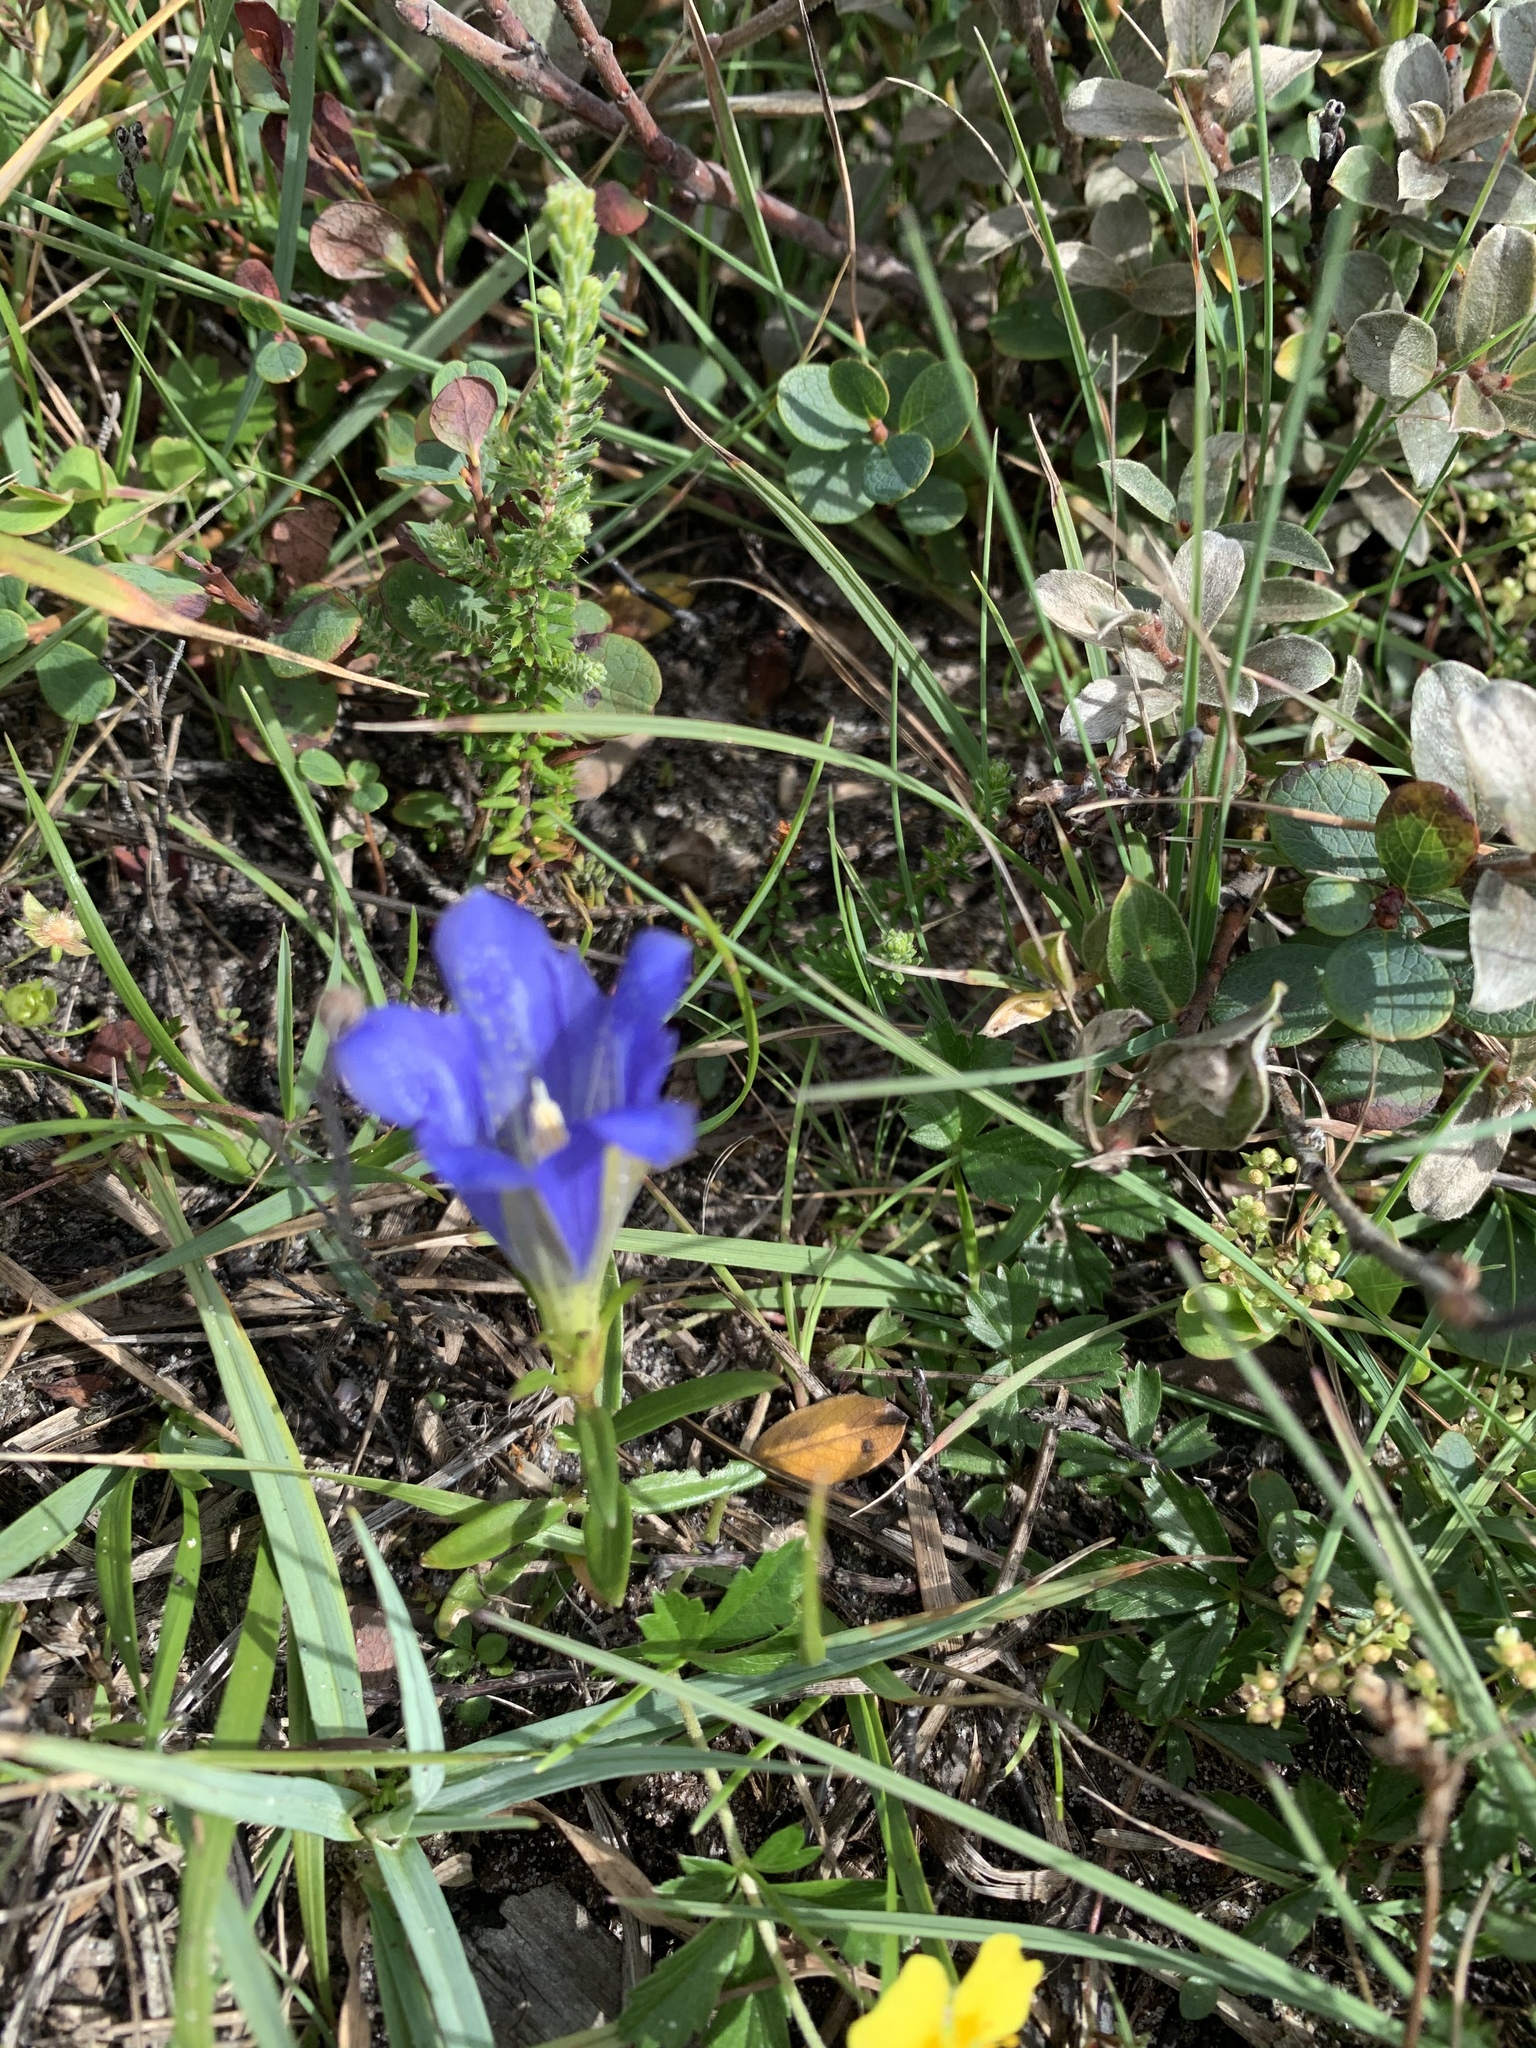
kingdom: Plantae
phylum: Tracheophyta
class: Magnoliopsida
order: Gentianales
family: Gentianaceae
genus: Gentiana
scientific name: Gentiana pneumonanthe
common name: Marsh gentian
